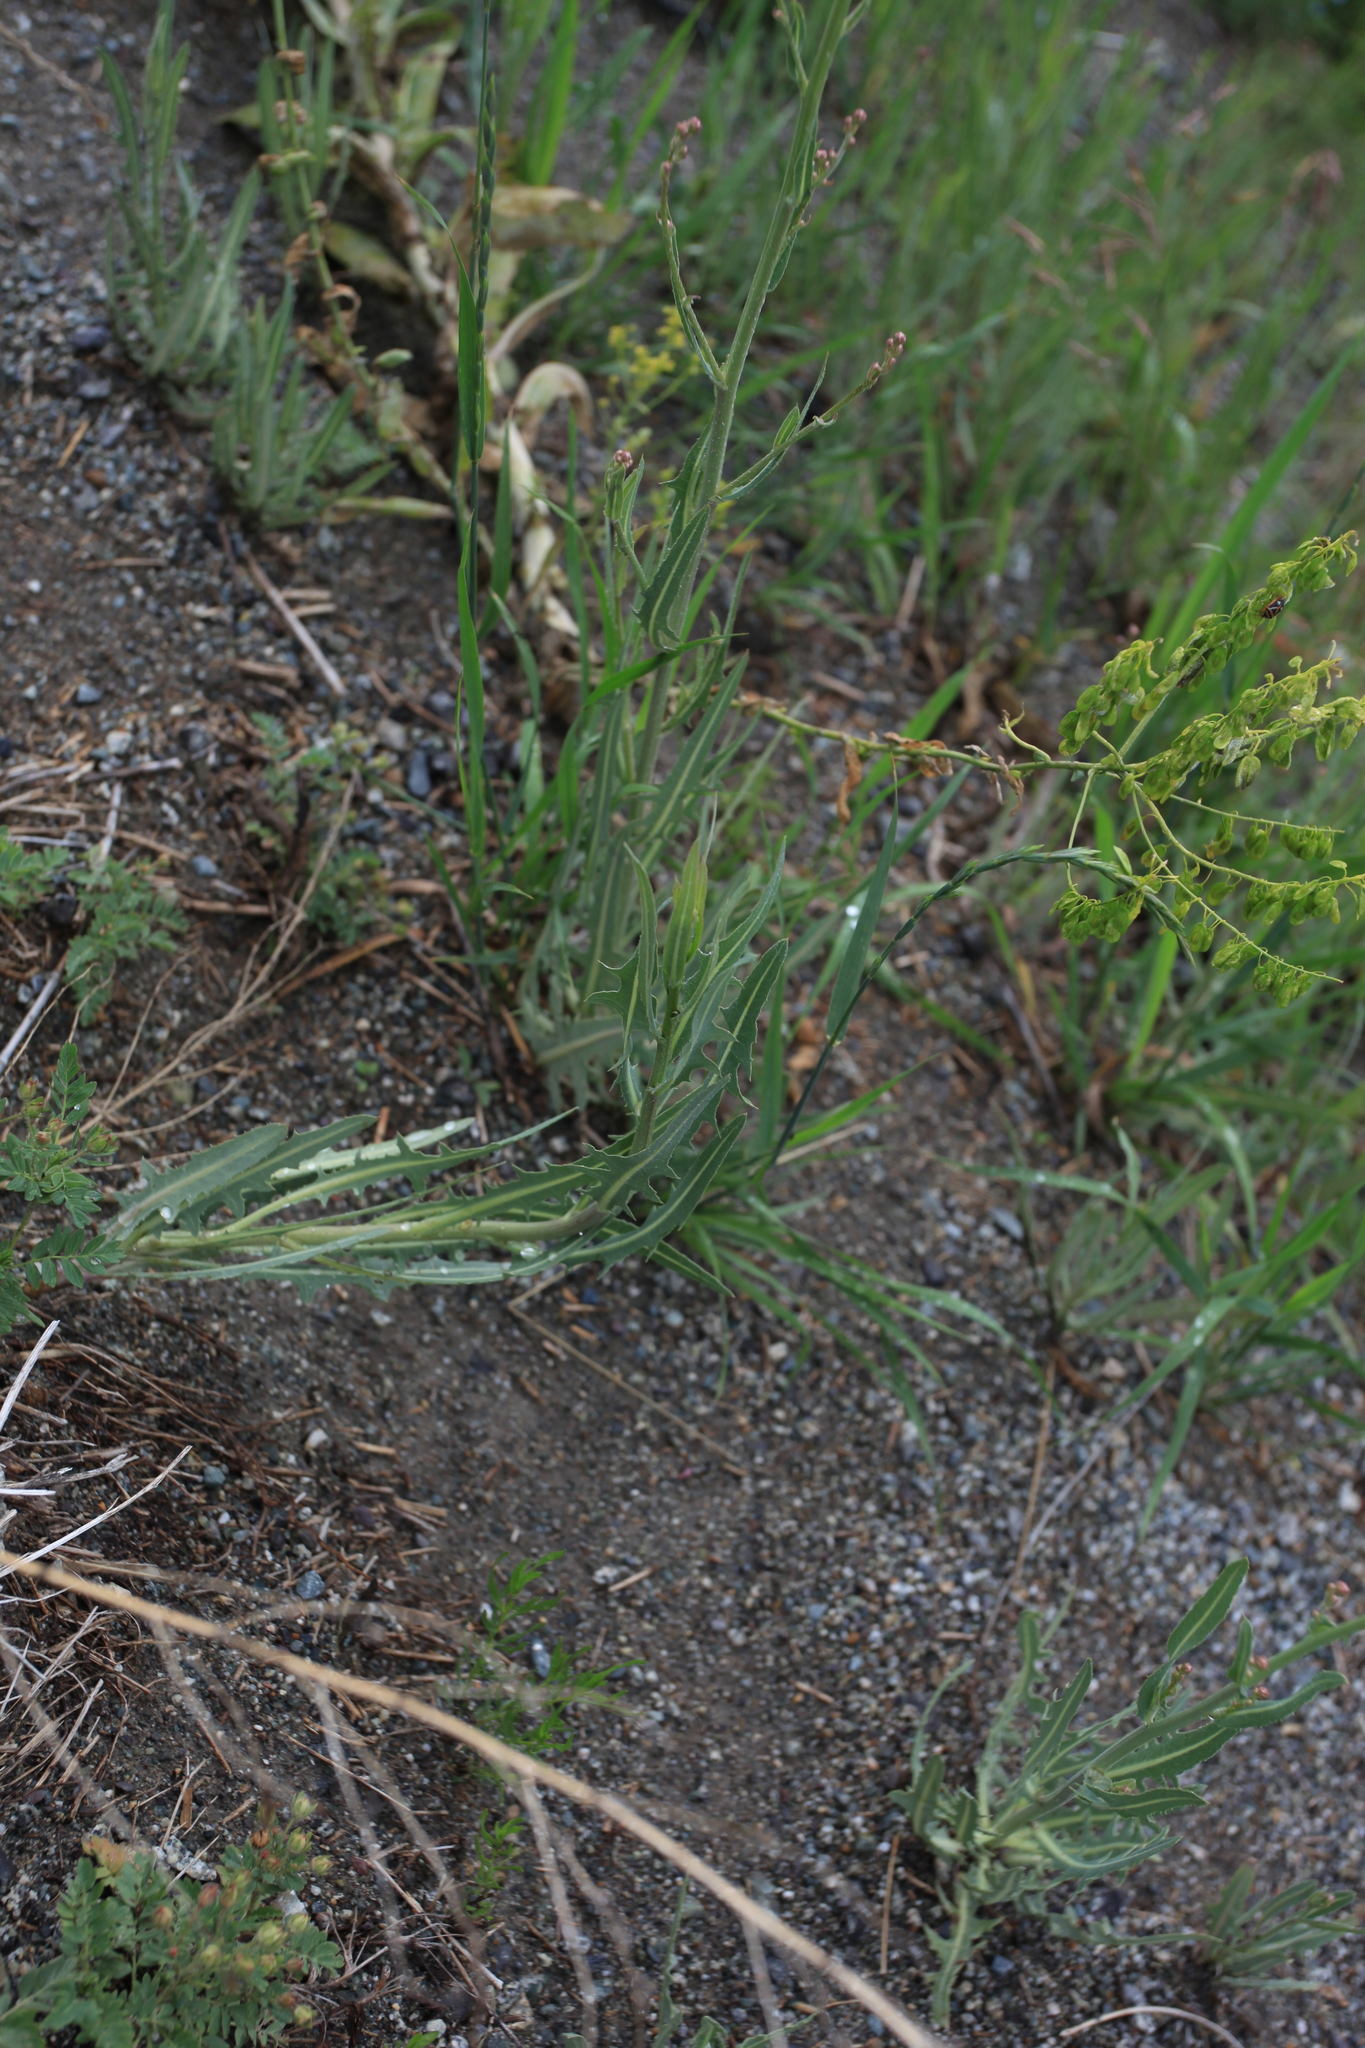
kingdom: Plantae
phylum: Tracheophyta
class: Magnoliopsida
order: Brassicales
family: Brassicaceae
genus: Isatis
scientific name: Isatis costata
